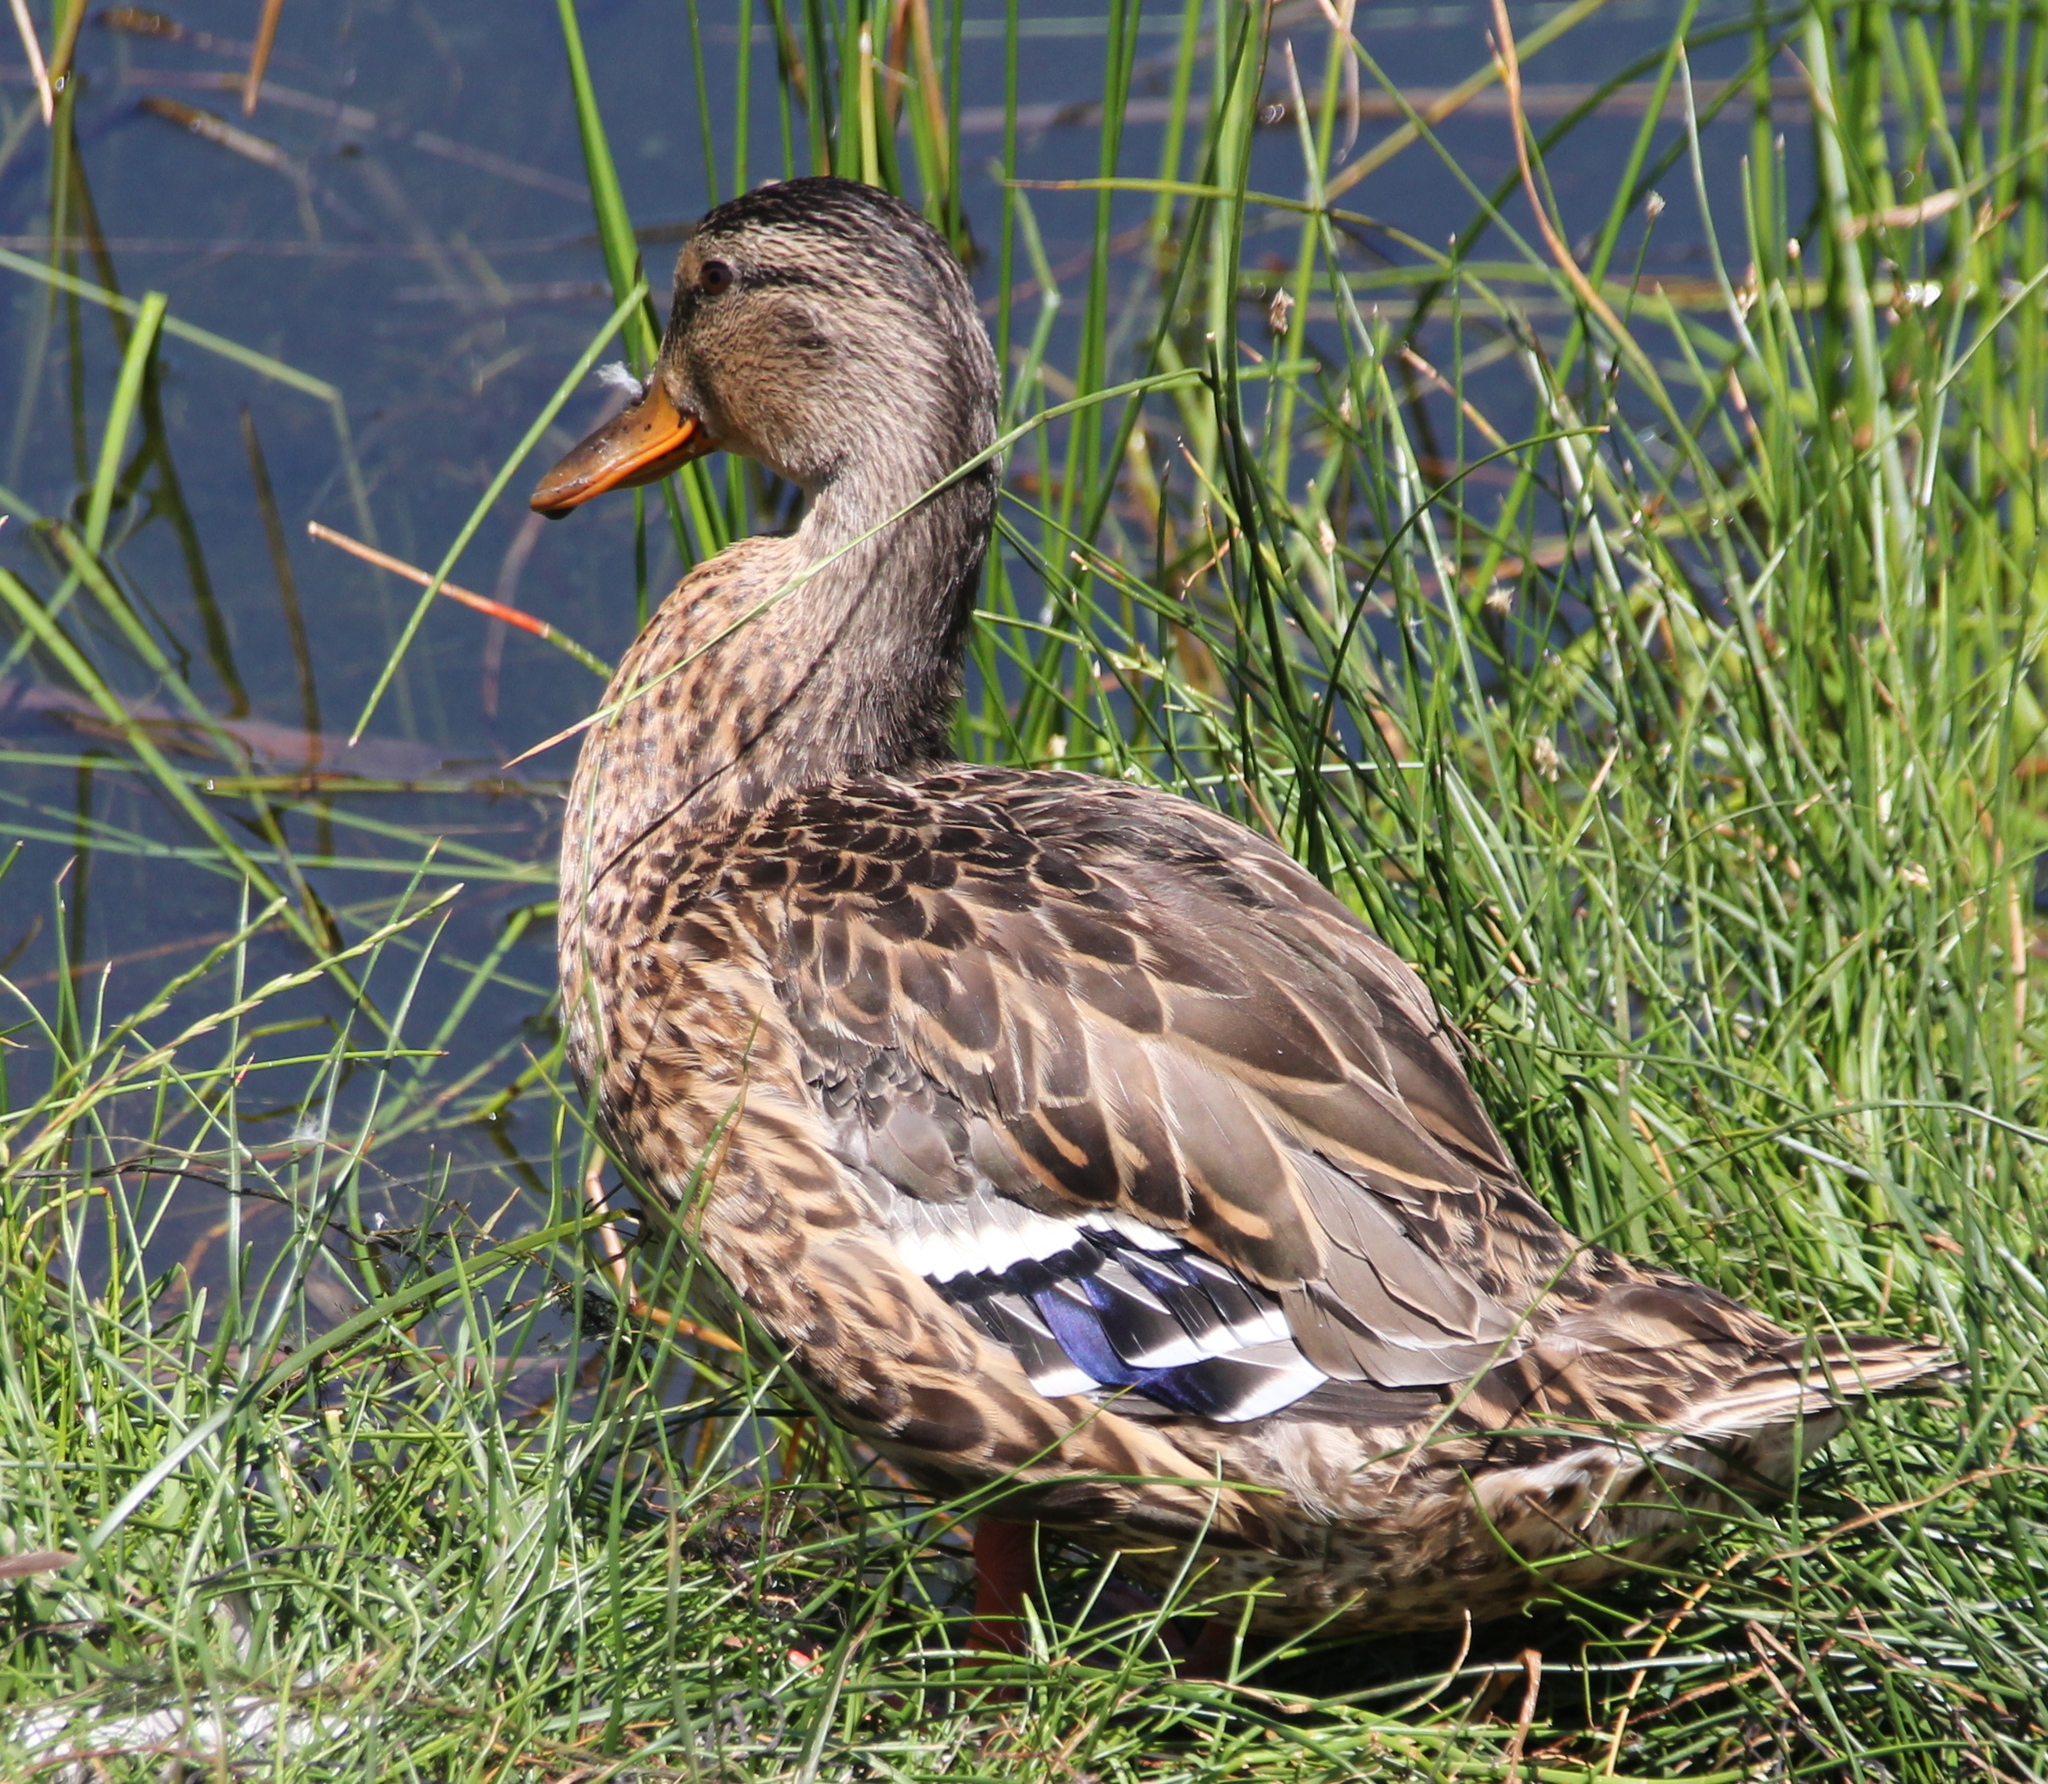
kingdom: Animalia
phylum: Chordata
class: Aves
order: Anseriformes
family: Anatidae
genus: Anas
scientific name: Anas platyrhynchos
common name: Mallard
